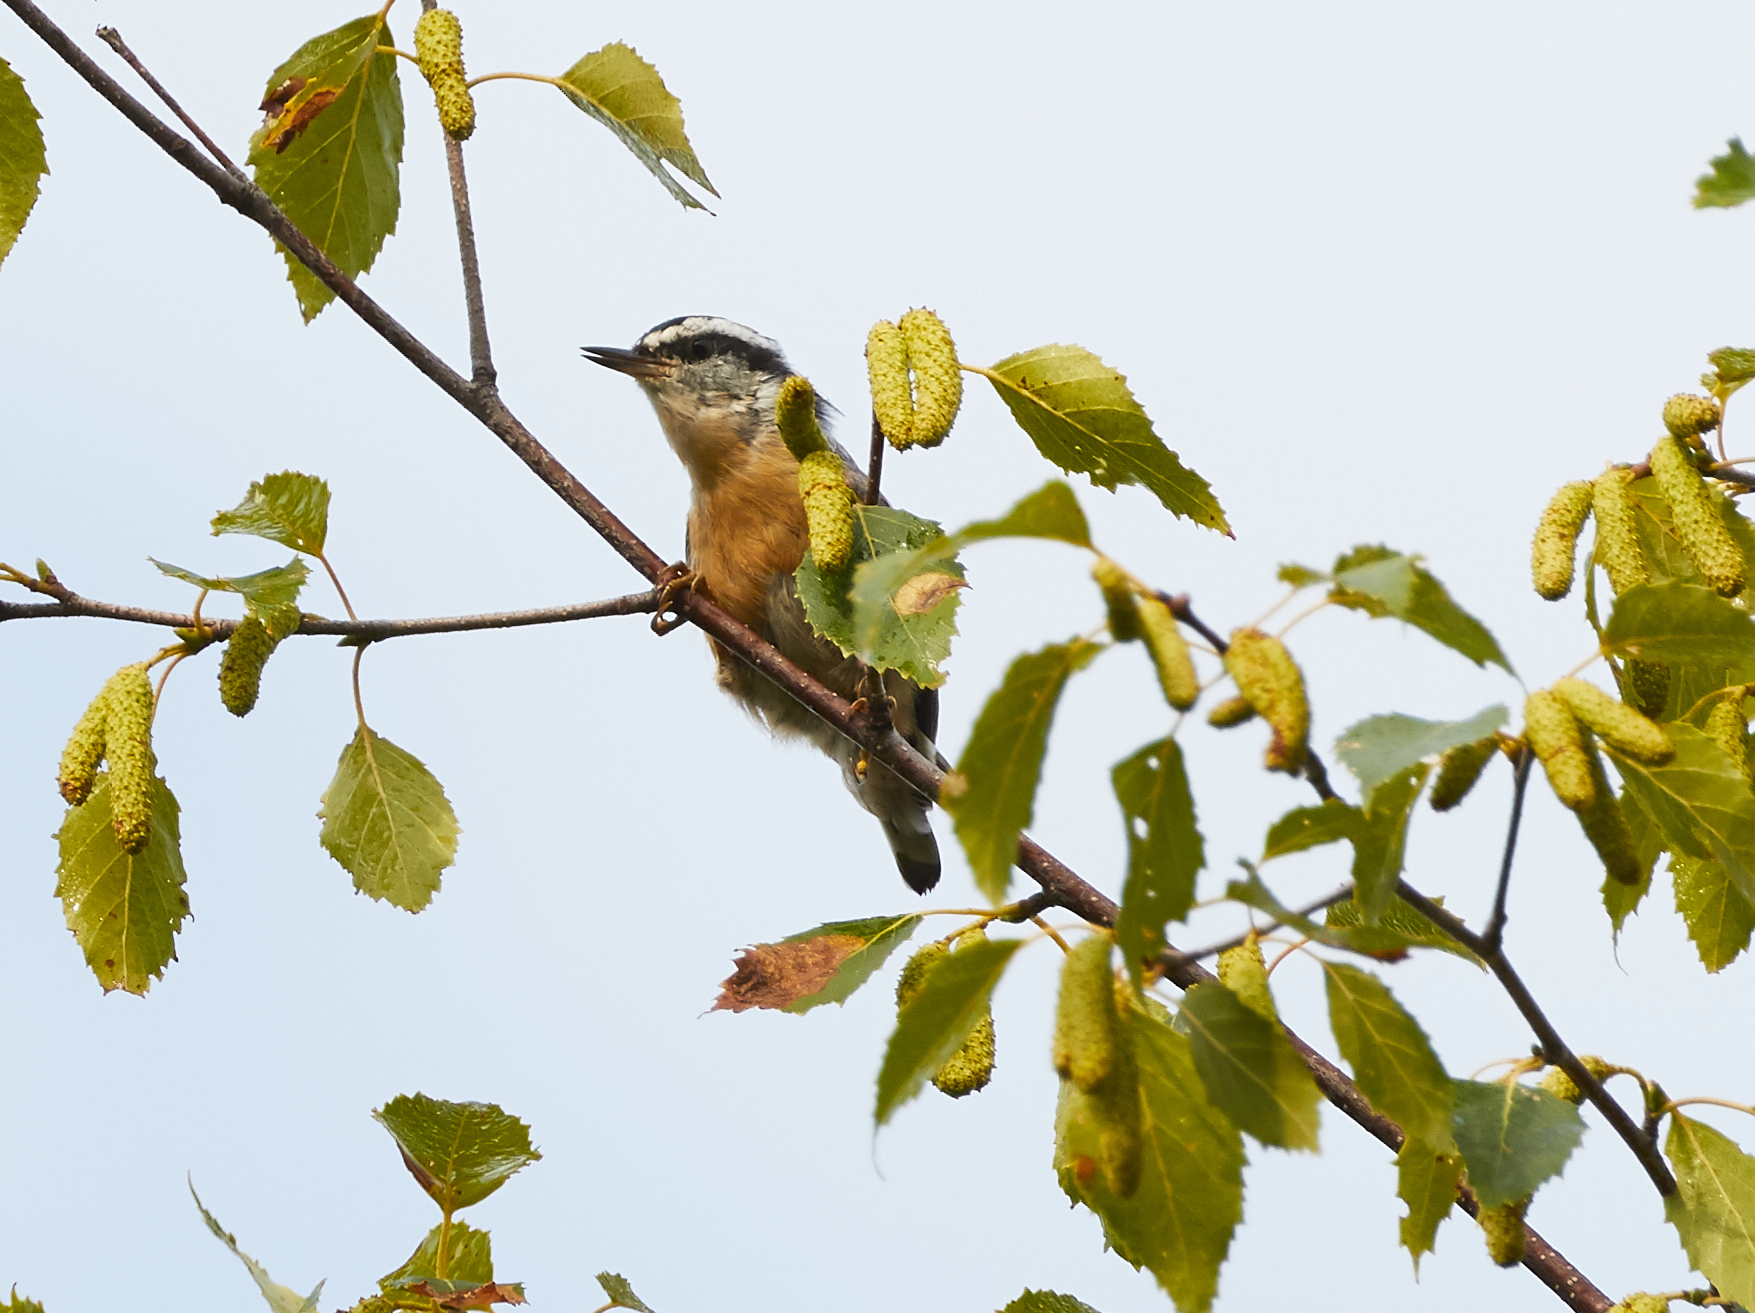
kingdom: Animalia
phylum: Chordata
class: Aves
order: Passeriformes
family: Sittidae
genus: Sitta
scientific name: Sitta canadensis
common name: Red-breasted nuthatch
